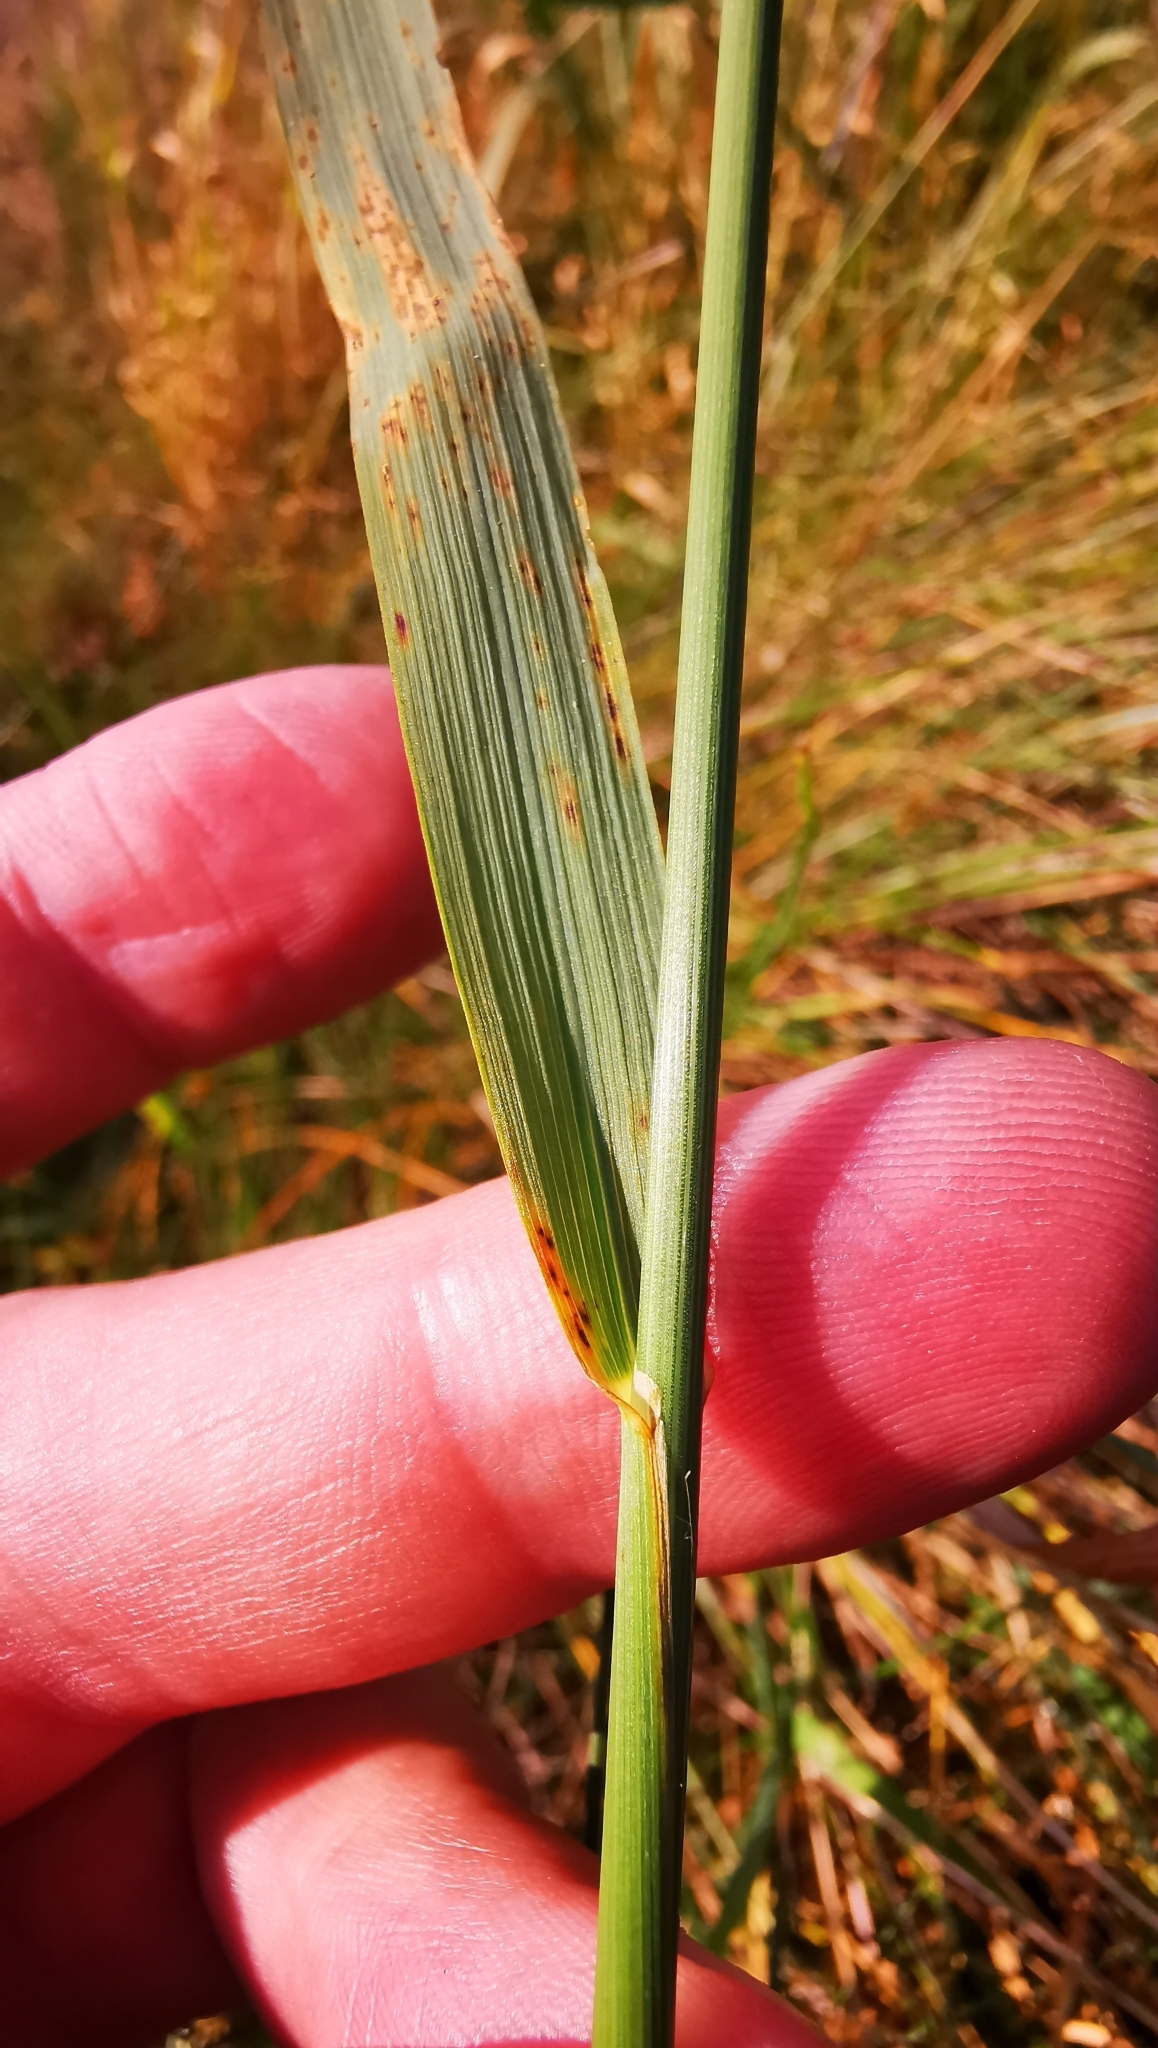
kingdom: Plantae
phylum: Tracheophyta
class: Liliopsida
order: Poales
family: Poaceae
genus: Arrhenatherum
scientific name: Arrhenatherum elatius
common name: Tall oatgrass
